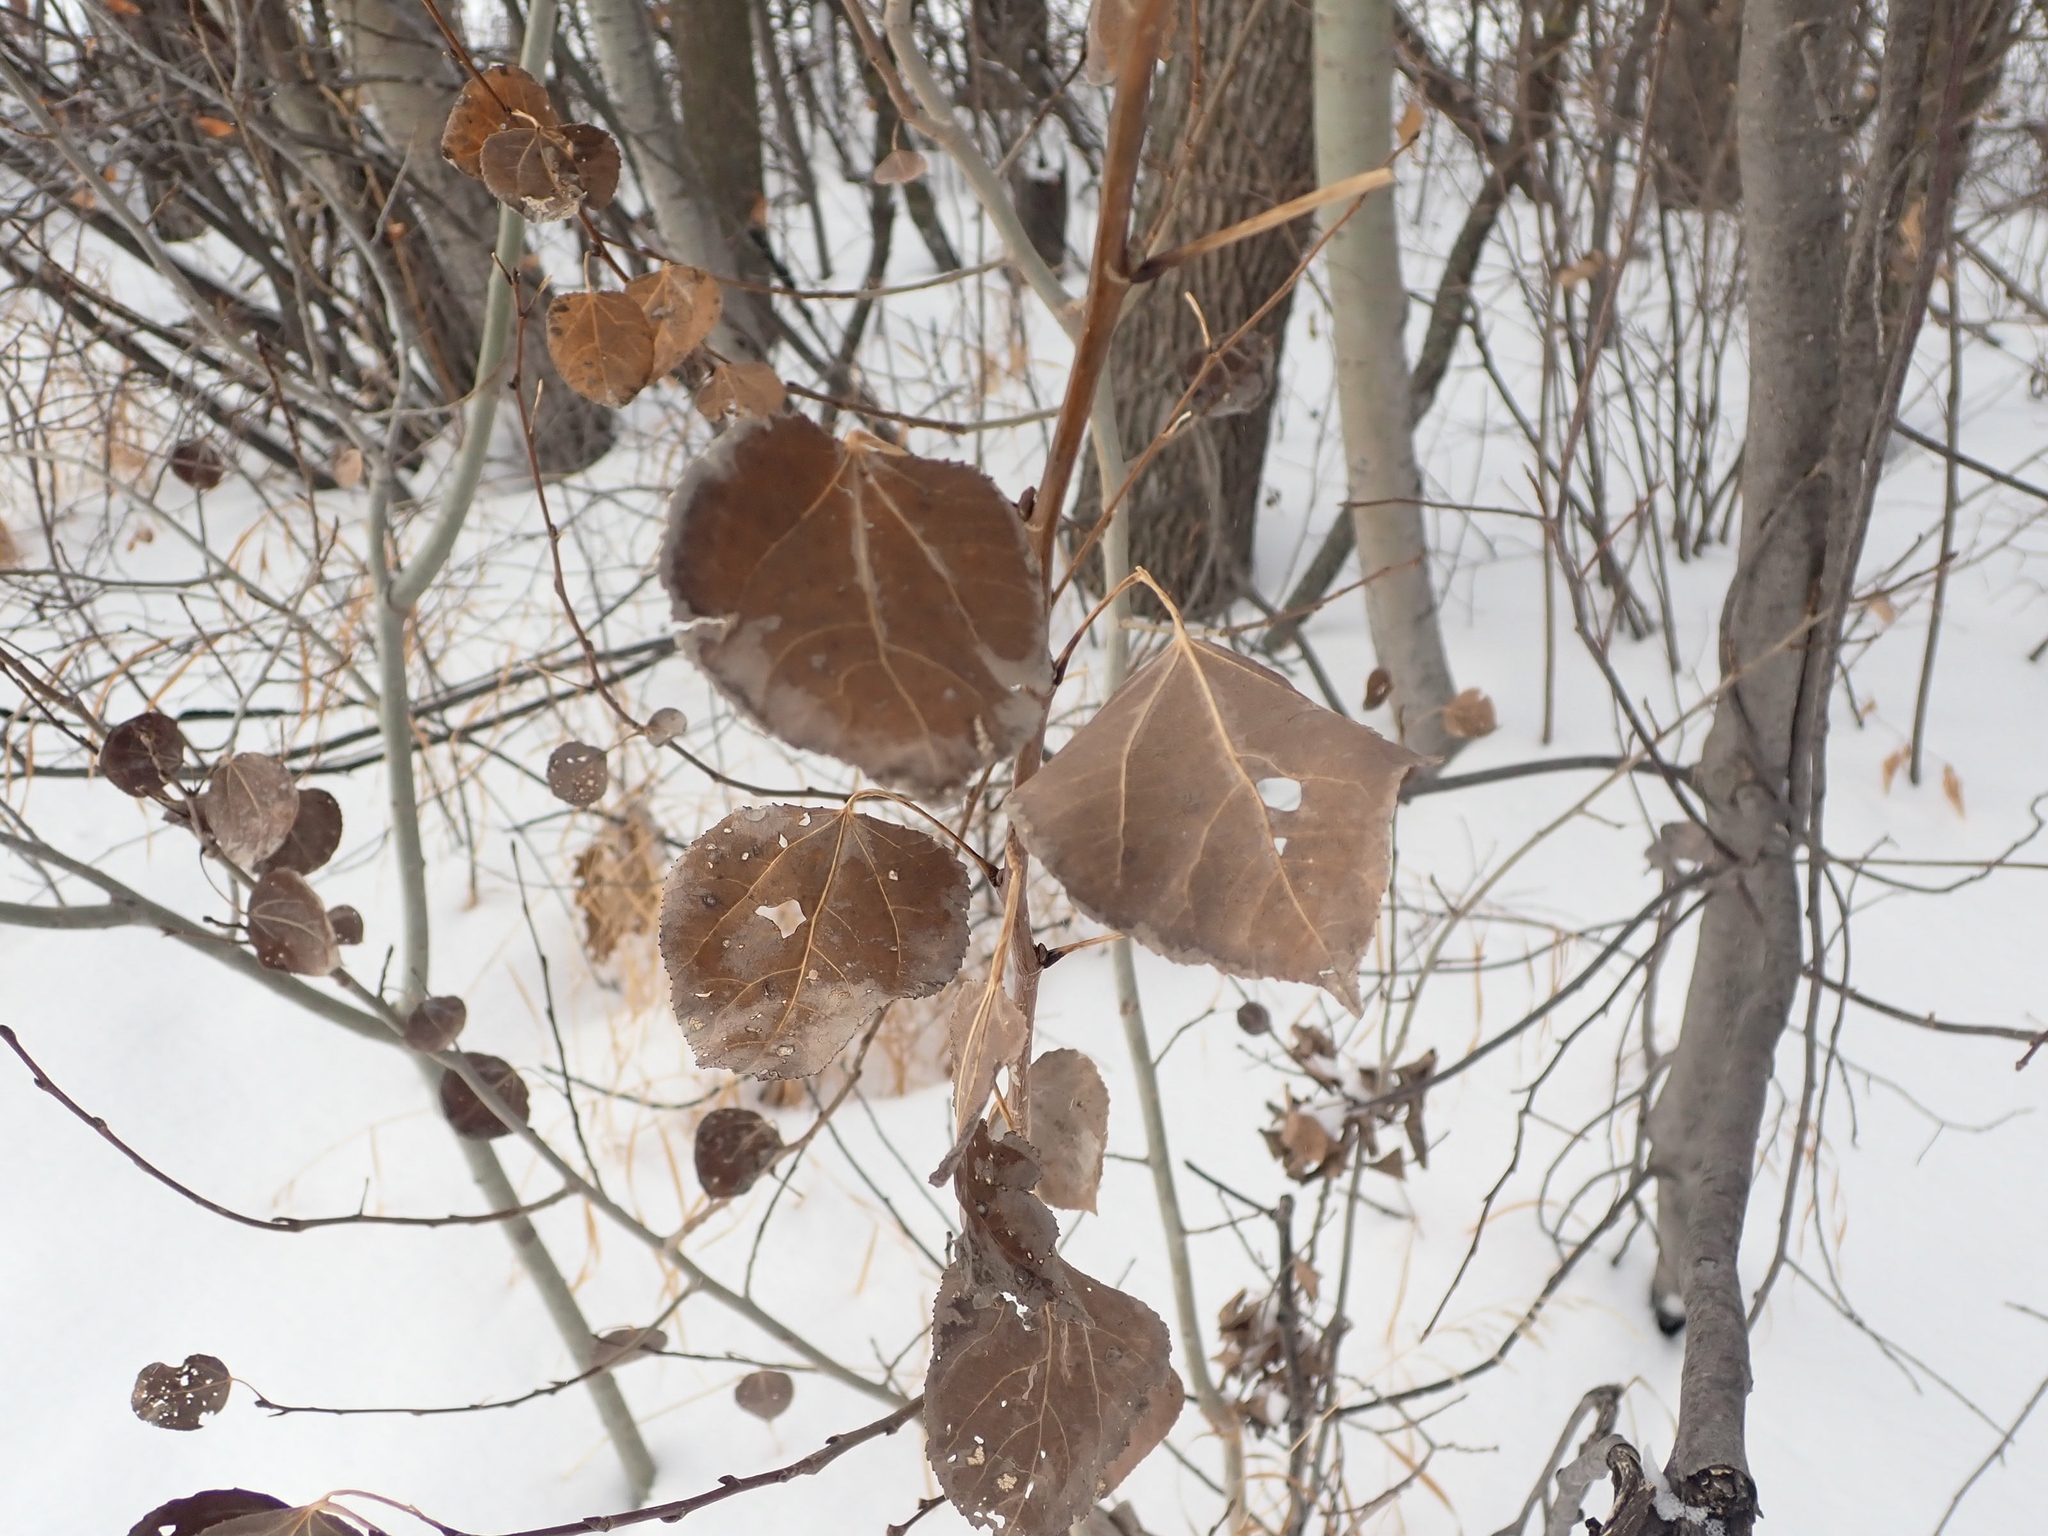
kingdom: Plantae
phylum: Tracheophyta
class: Magnoliopsida
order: Malpighiales
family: Salicaceae
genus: Populus
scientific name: Populus tremuloides
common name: Quaking aspen
